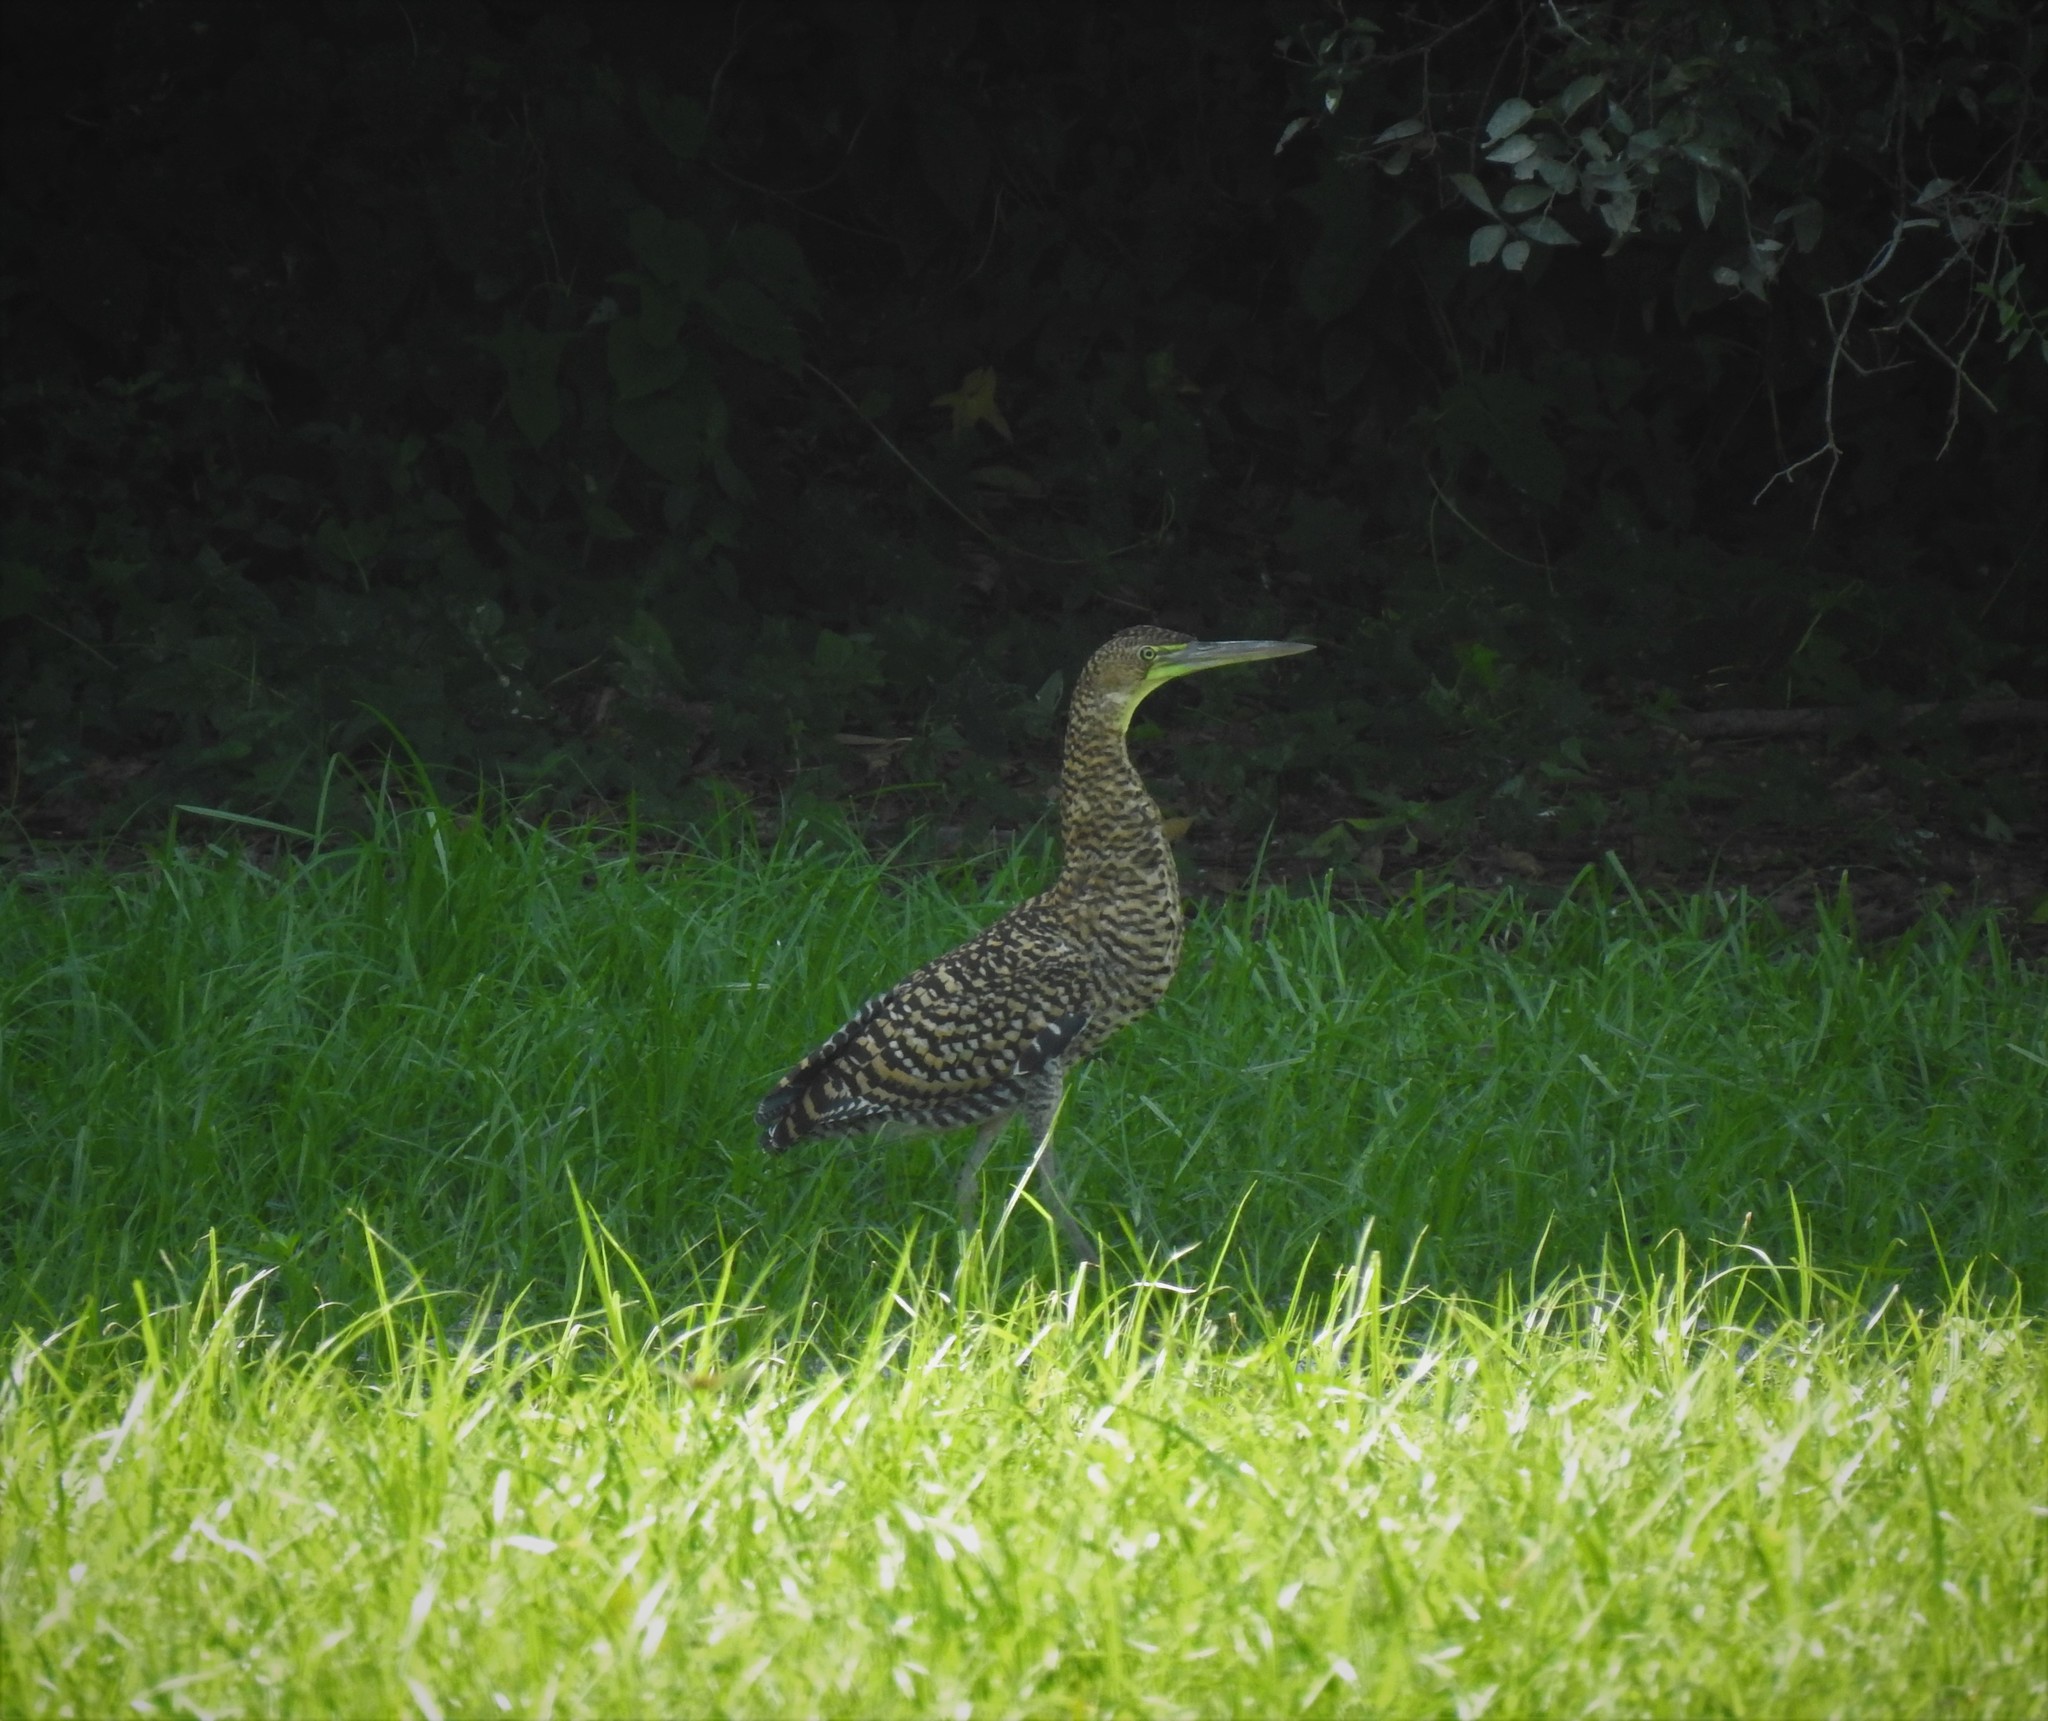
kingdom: Animalia
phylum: Chordata
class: Aves
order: Pelecaniformes
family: Ardeidae
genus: Tigrisoma
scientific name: Tigrisoma mexicanum
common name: Bare-throated tiger-heron
